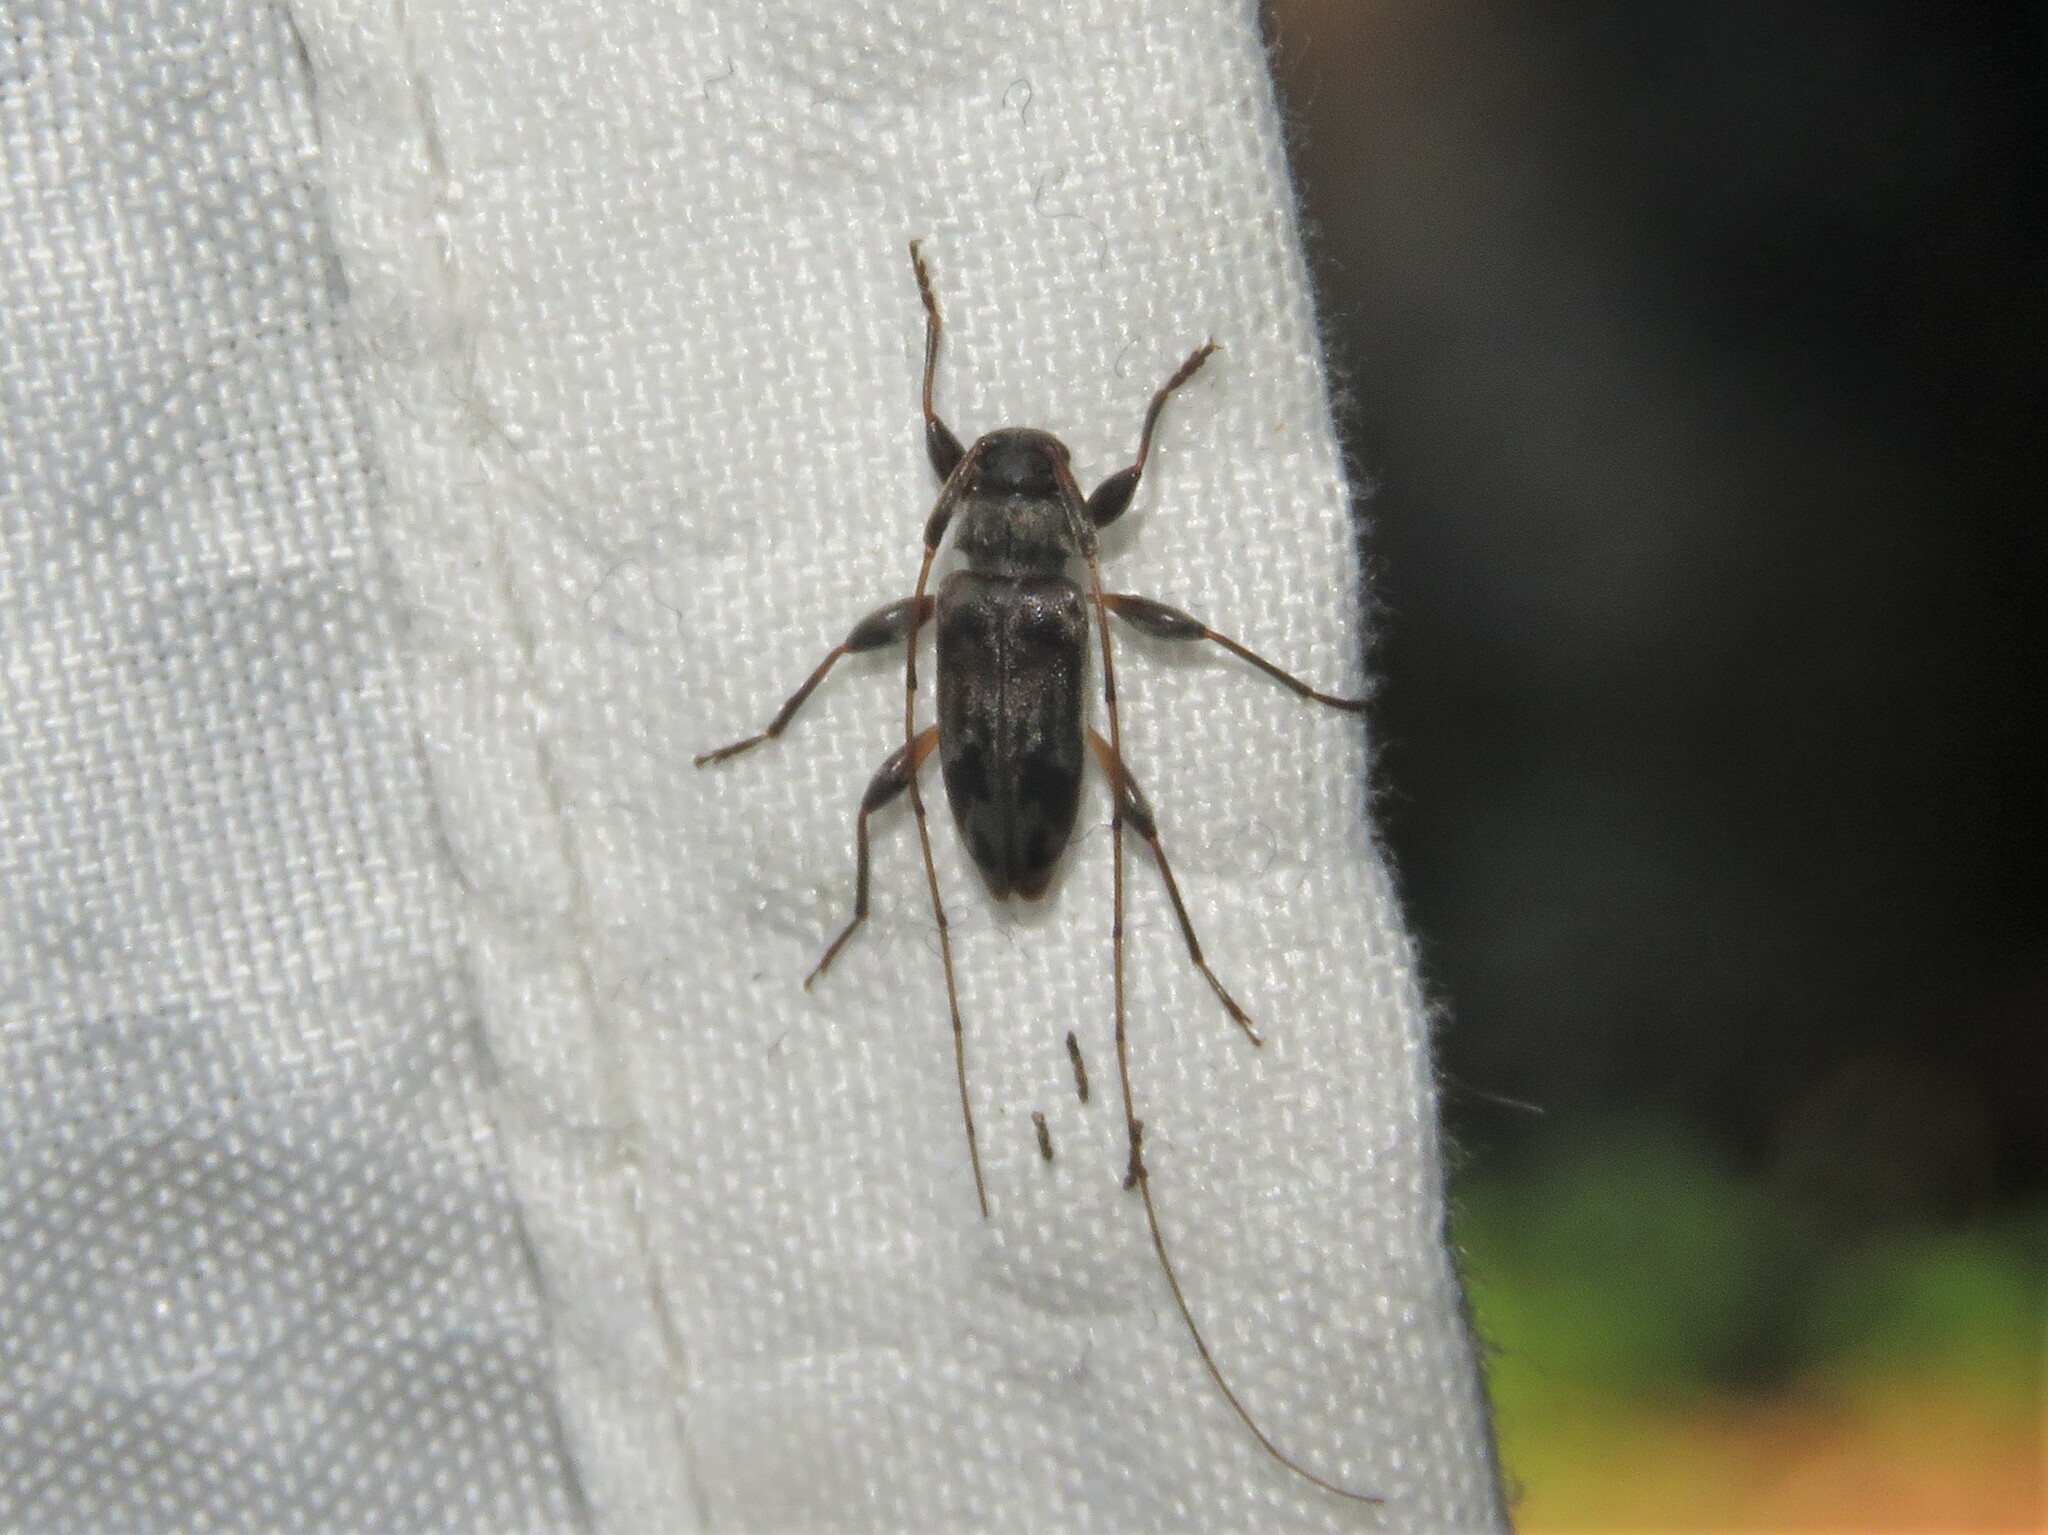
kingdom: Animalia
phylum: Arthropoda
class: Insecta
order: Coleoptera
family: Cerambycidae
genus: Urgleptes
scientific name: Urgleptes signatus
